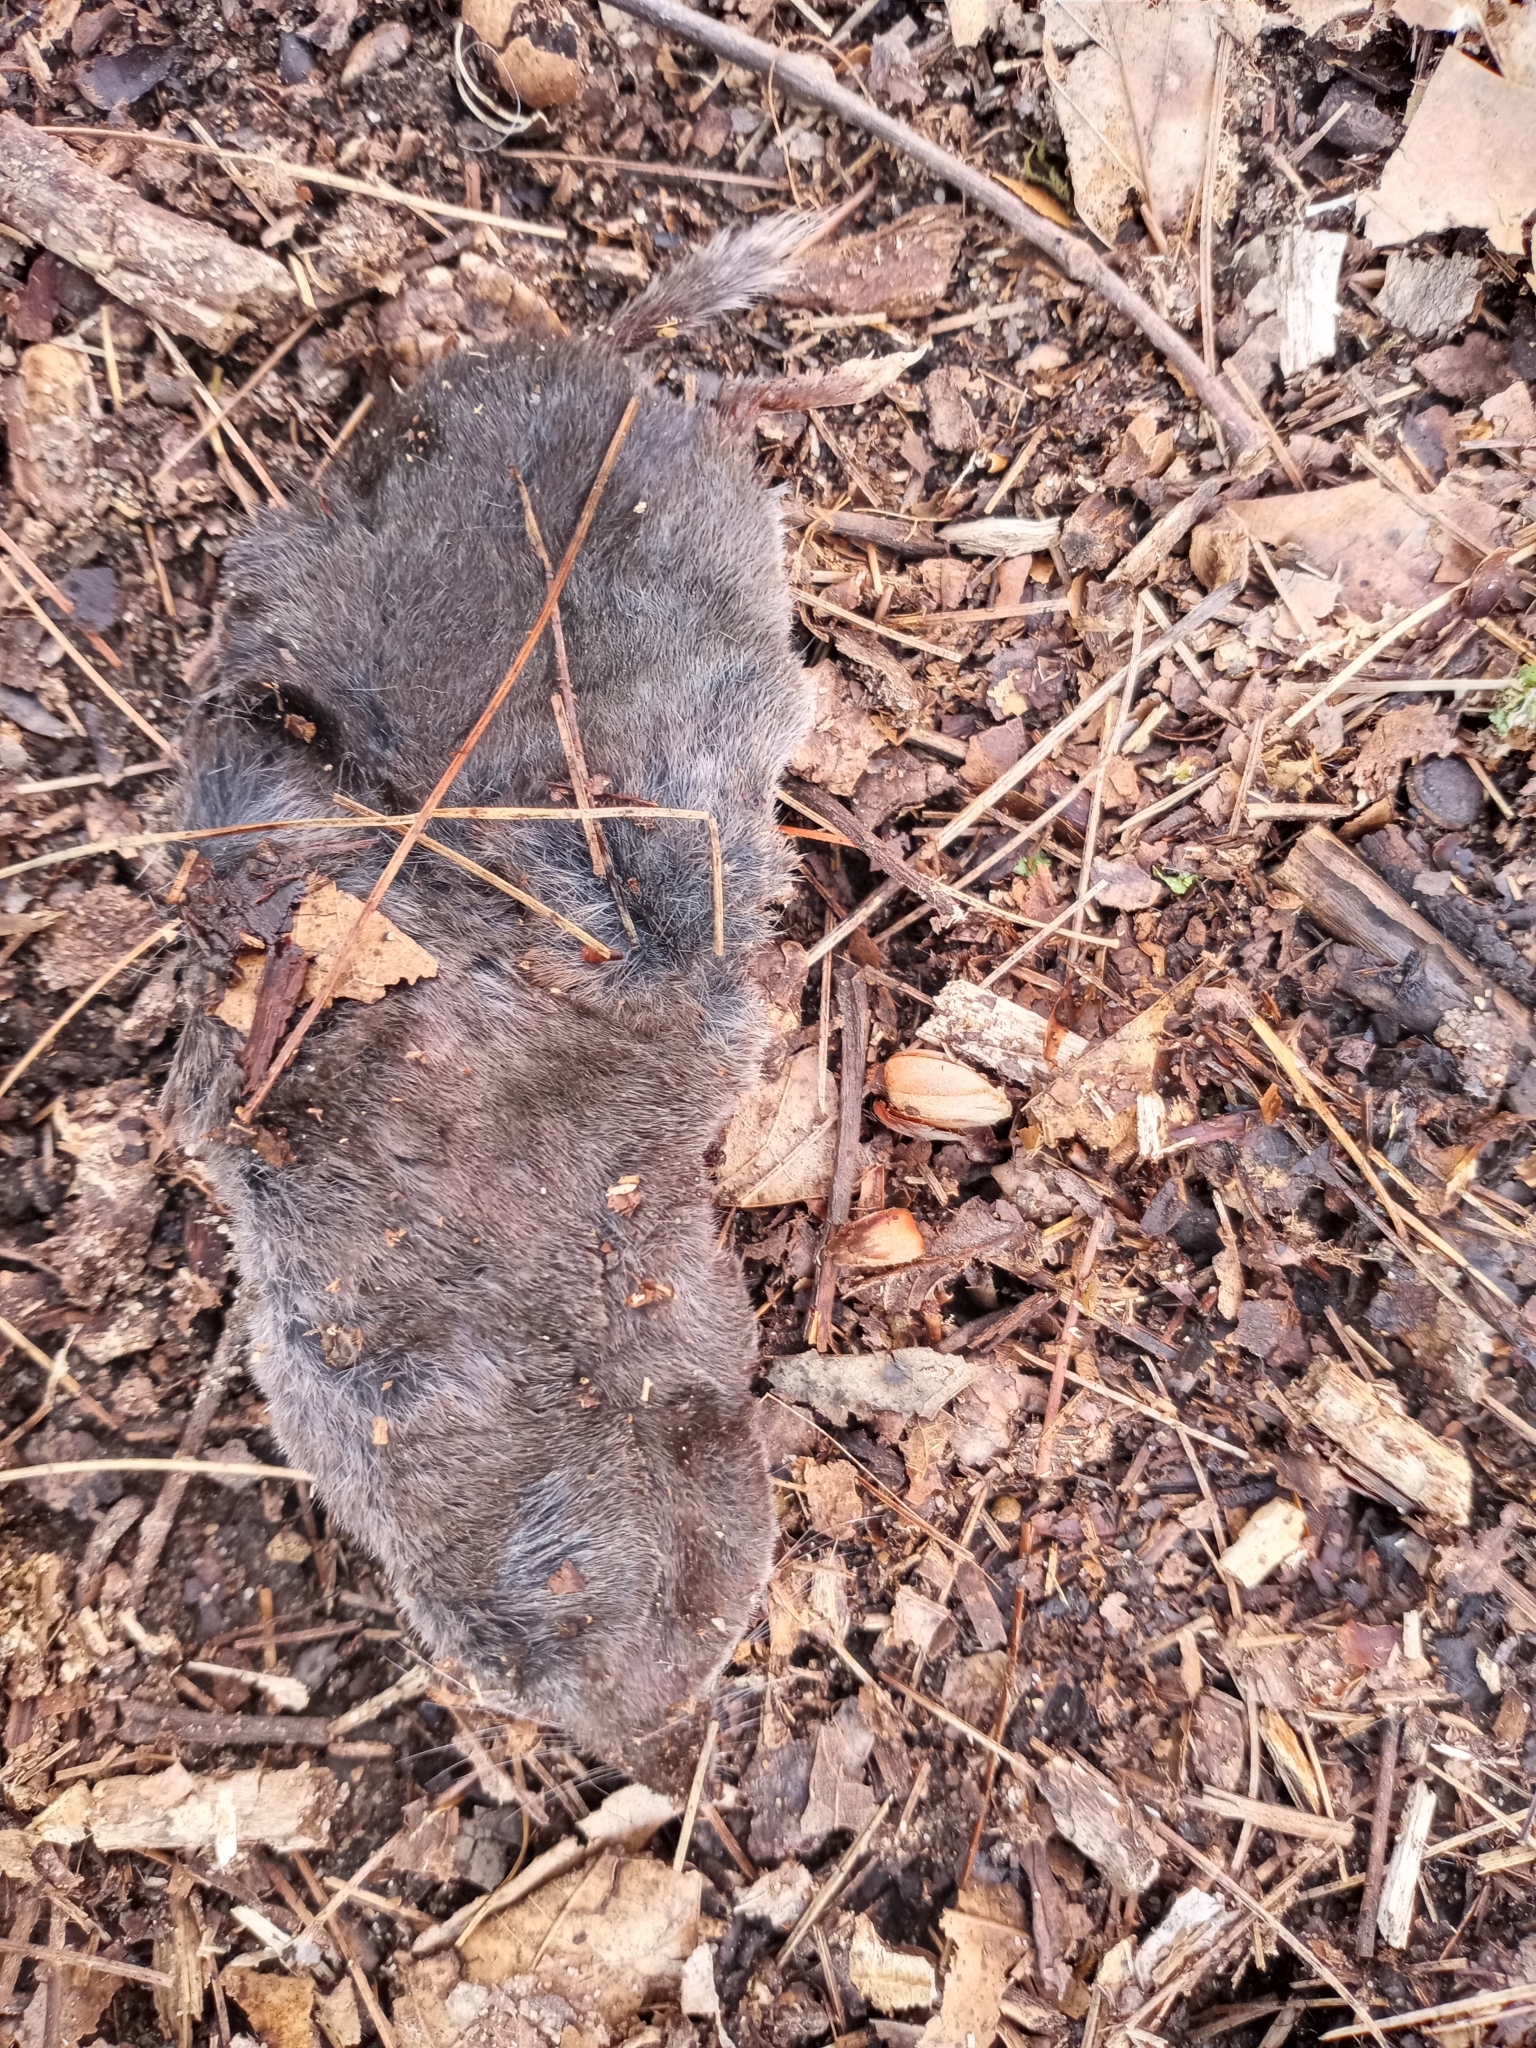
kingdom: Animalia
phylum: Chordata
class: Mammalia
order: Soricomorpha
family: Soricidae
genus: Blarina
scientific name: Blarina brevicauda
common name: Northern short-tailed shrew
